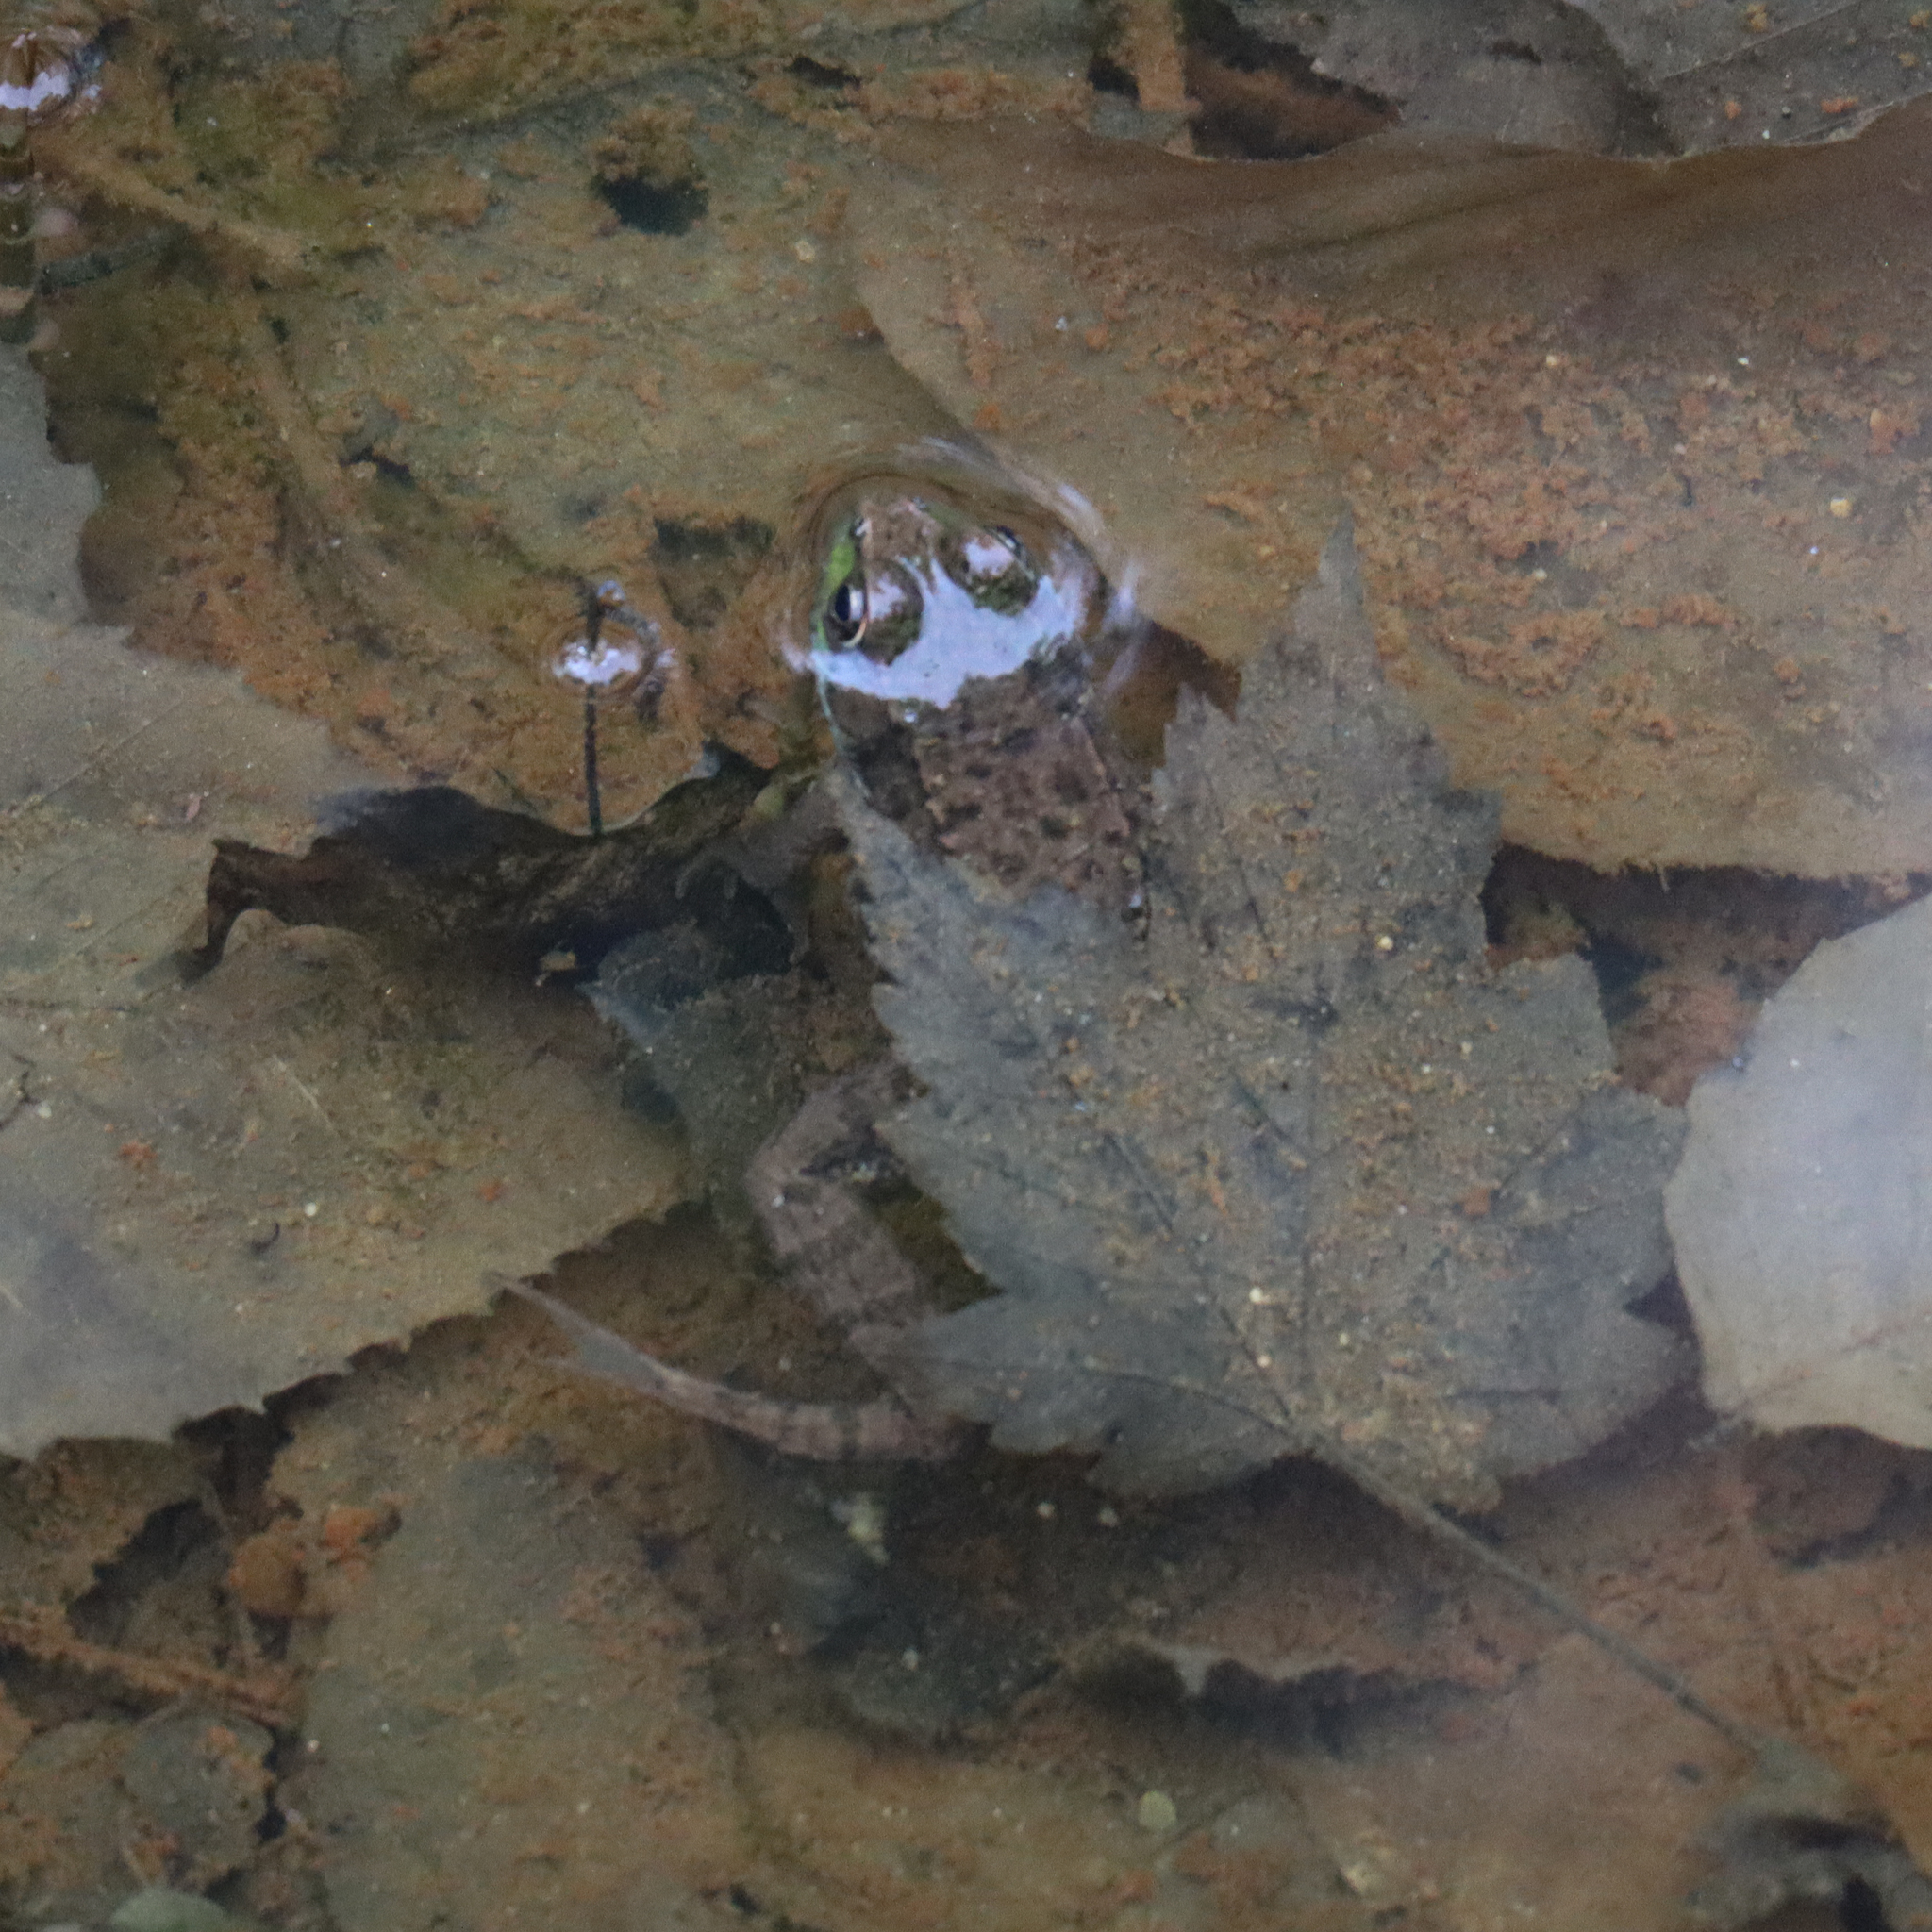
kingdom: Animalia
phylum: Chordata
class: Amphibia
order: Anura
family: Ranidae
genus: Lithobates
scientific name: Lithobates clamitans
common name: Green frog
